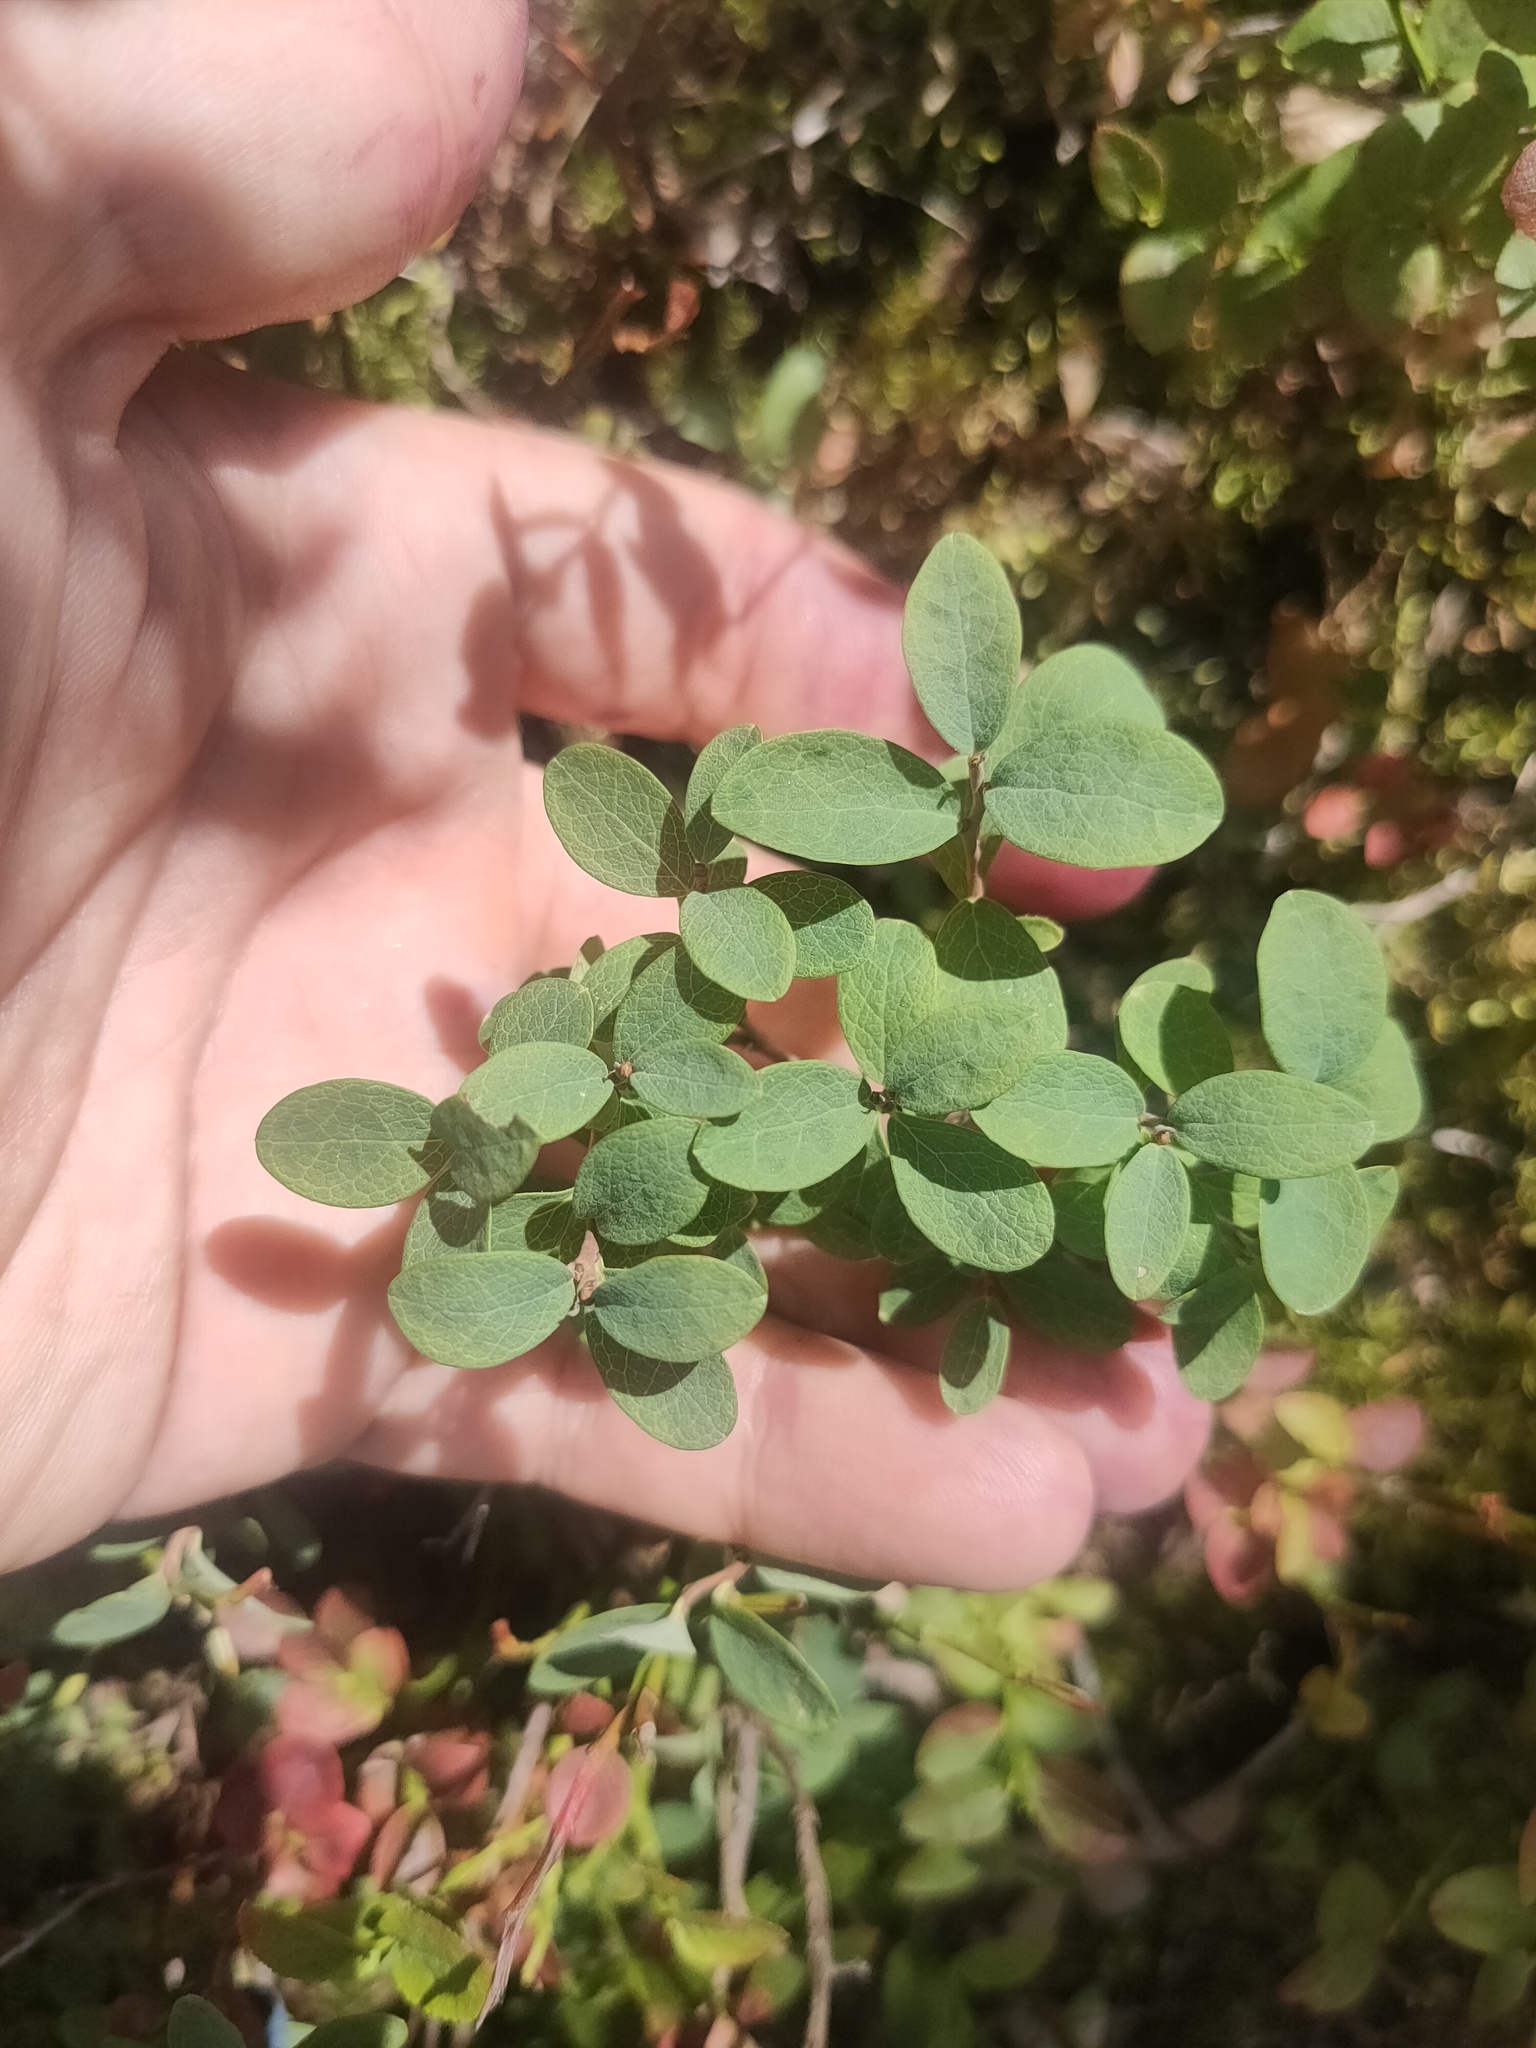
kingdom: Plantae
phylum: Tracheophyta
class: Magnoliopsida
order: Ericales
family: Ericaceae
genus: Vaccinium
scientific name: Vaccinium uliginosum
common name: Bog bilberry
